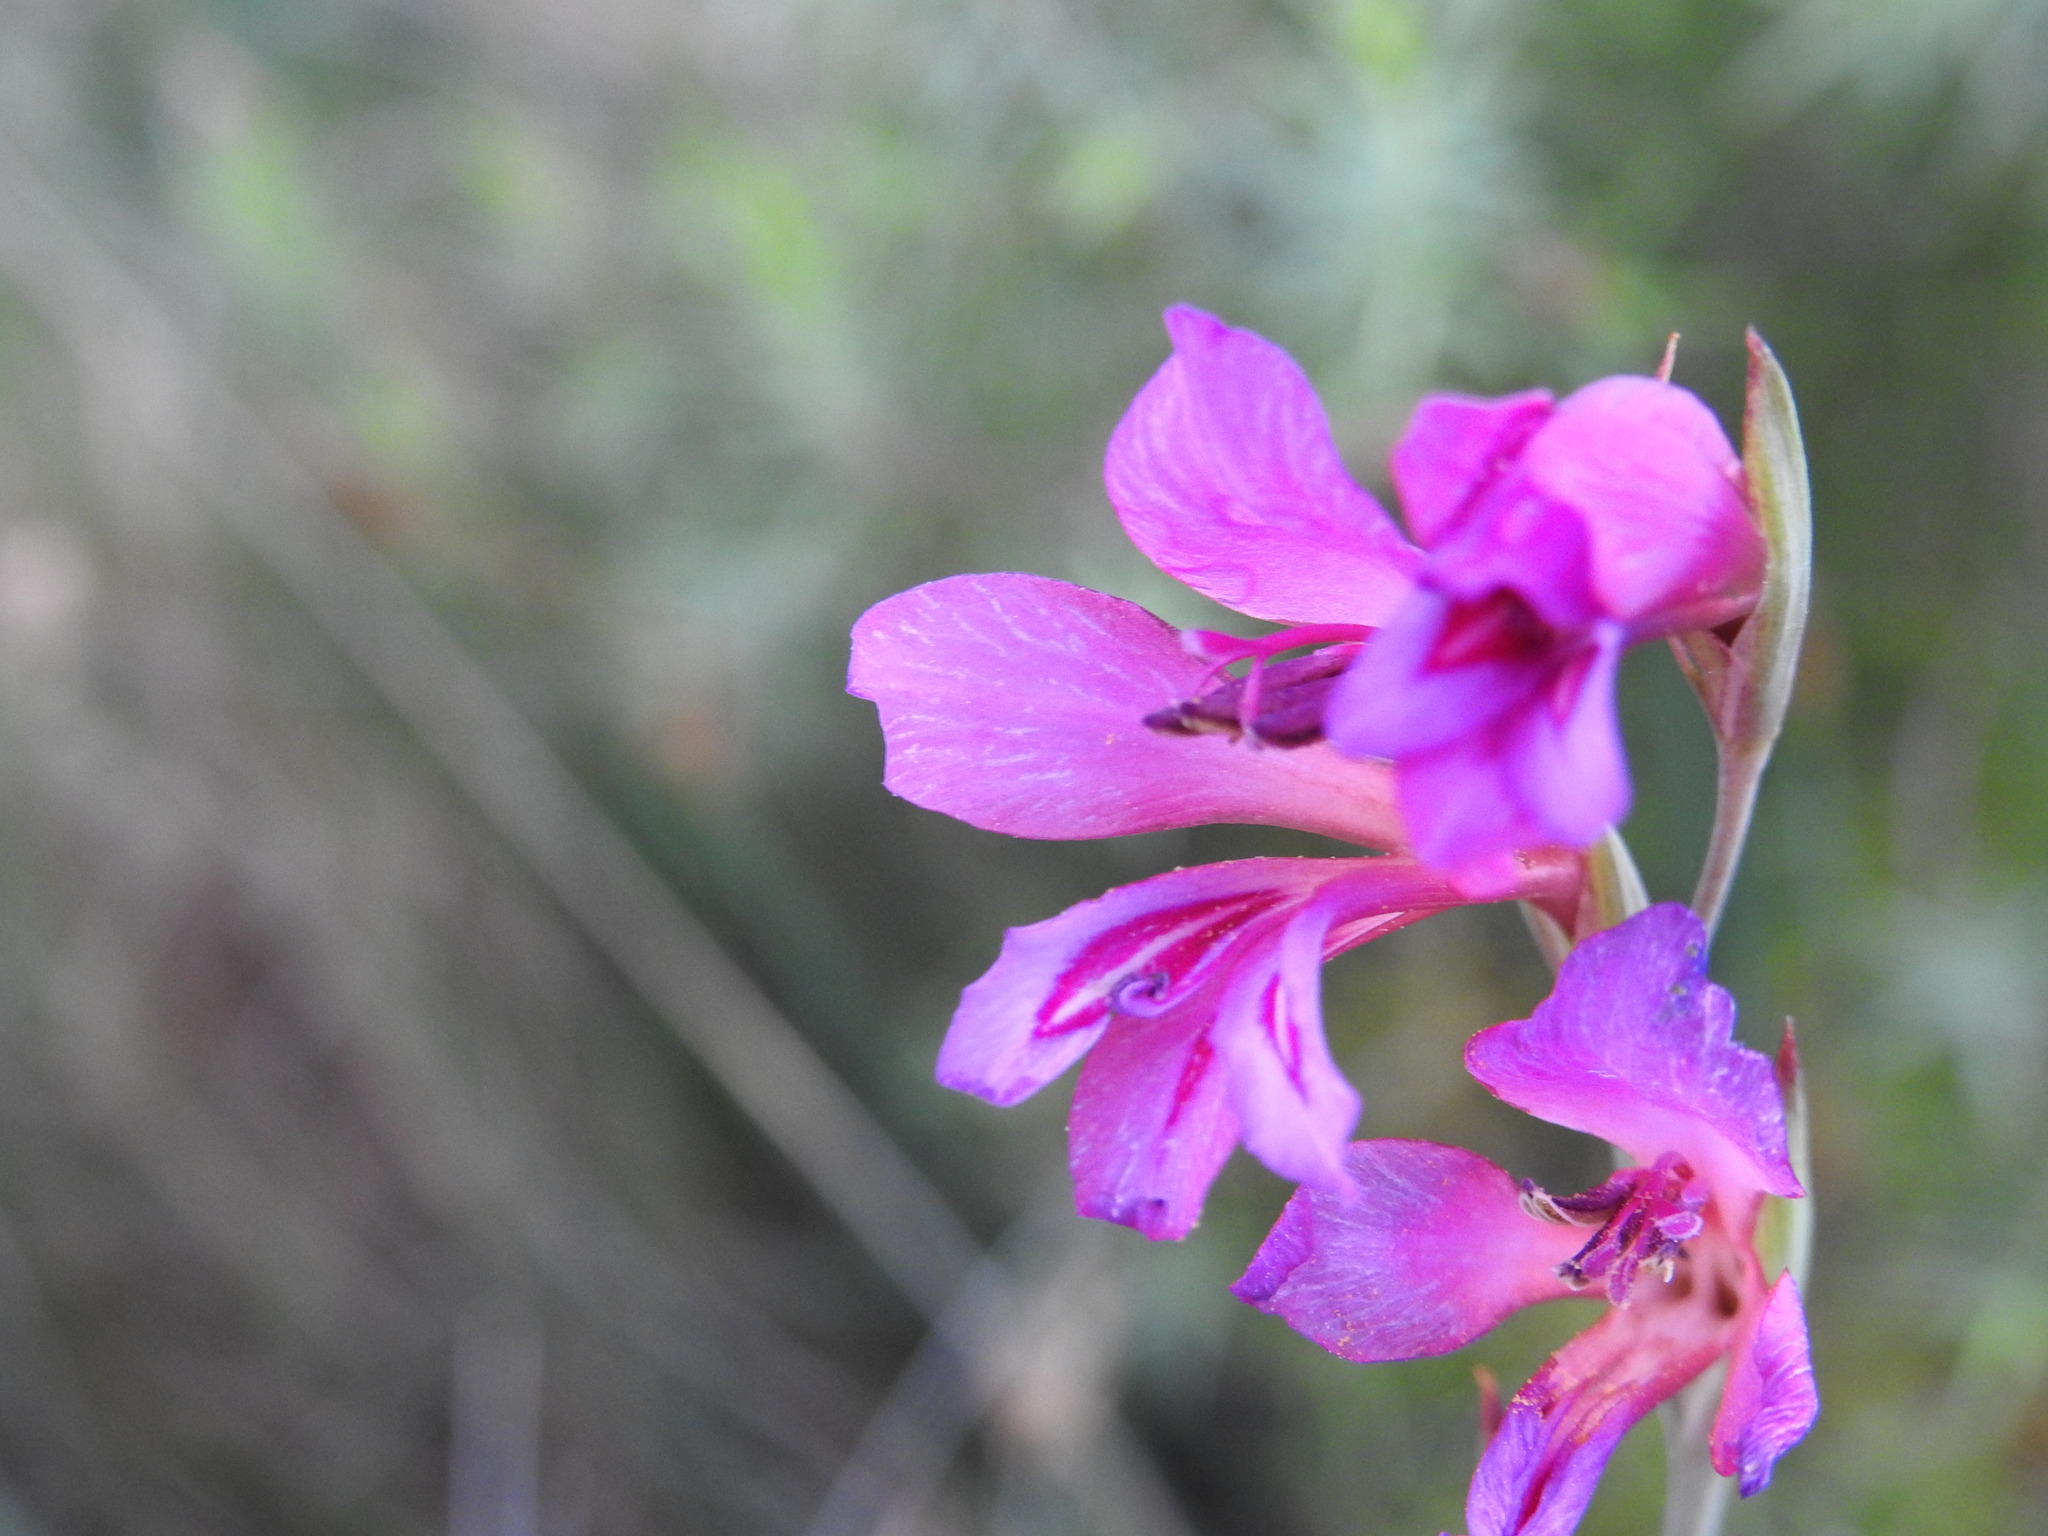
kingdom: Plantae
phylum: Tracheophyta
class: Liliopsida
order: Asparagales
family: Iridaceae
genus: Gladiolus
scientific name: Gladiolus dubius
